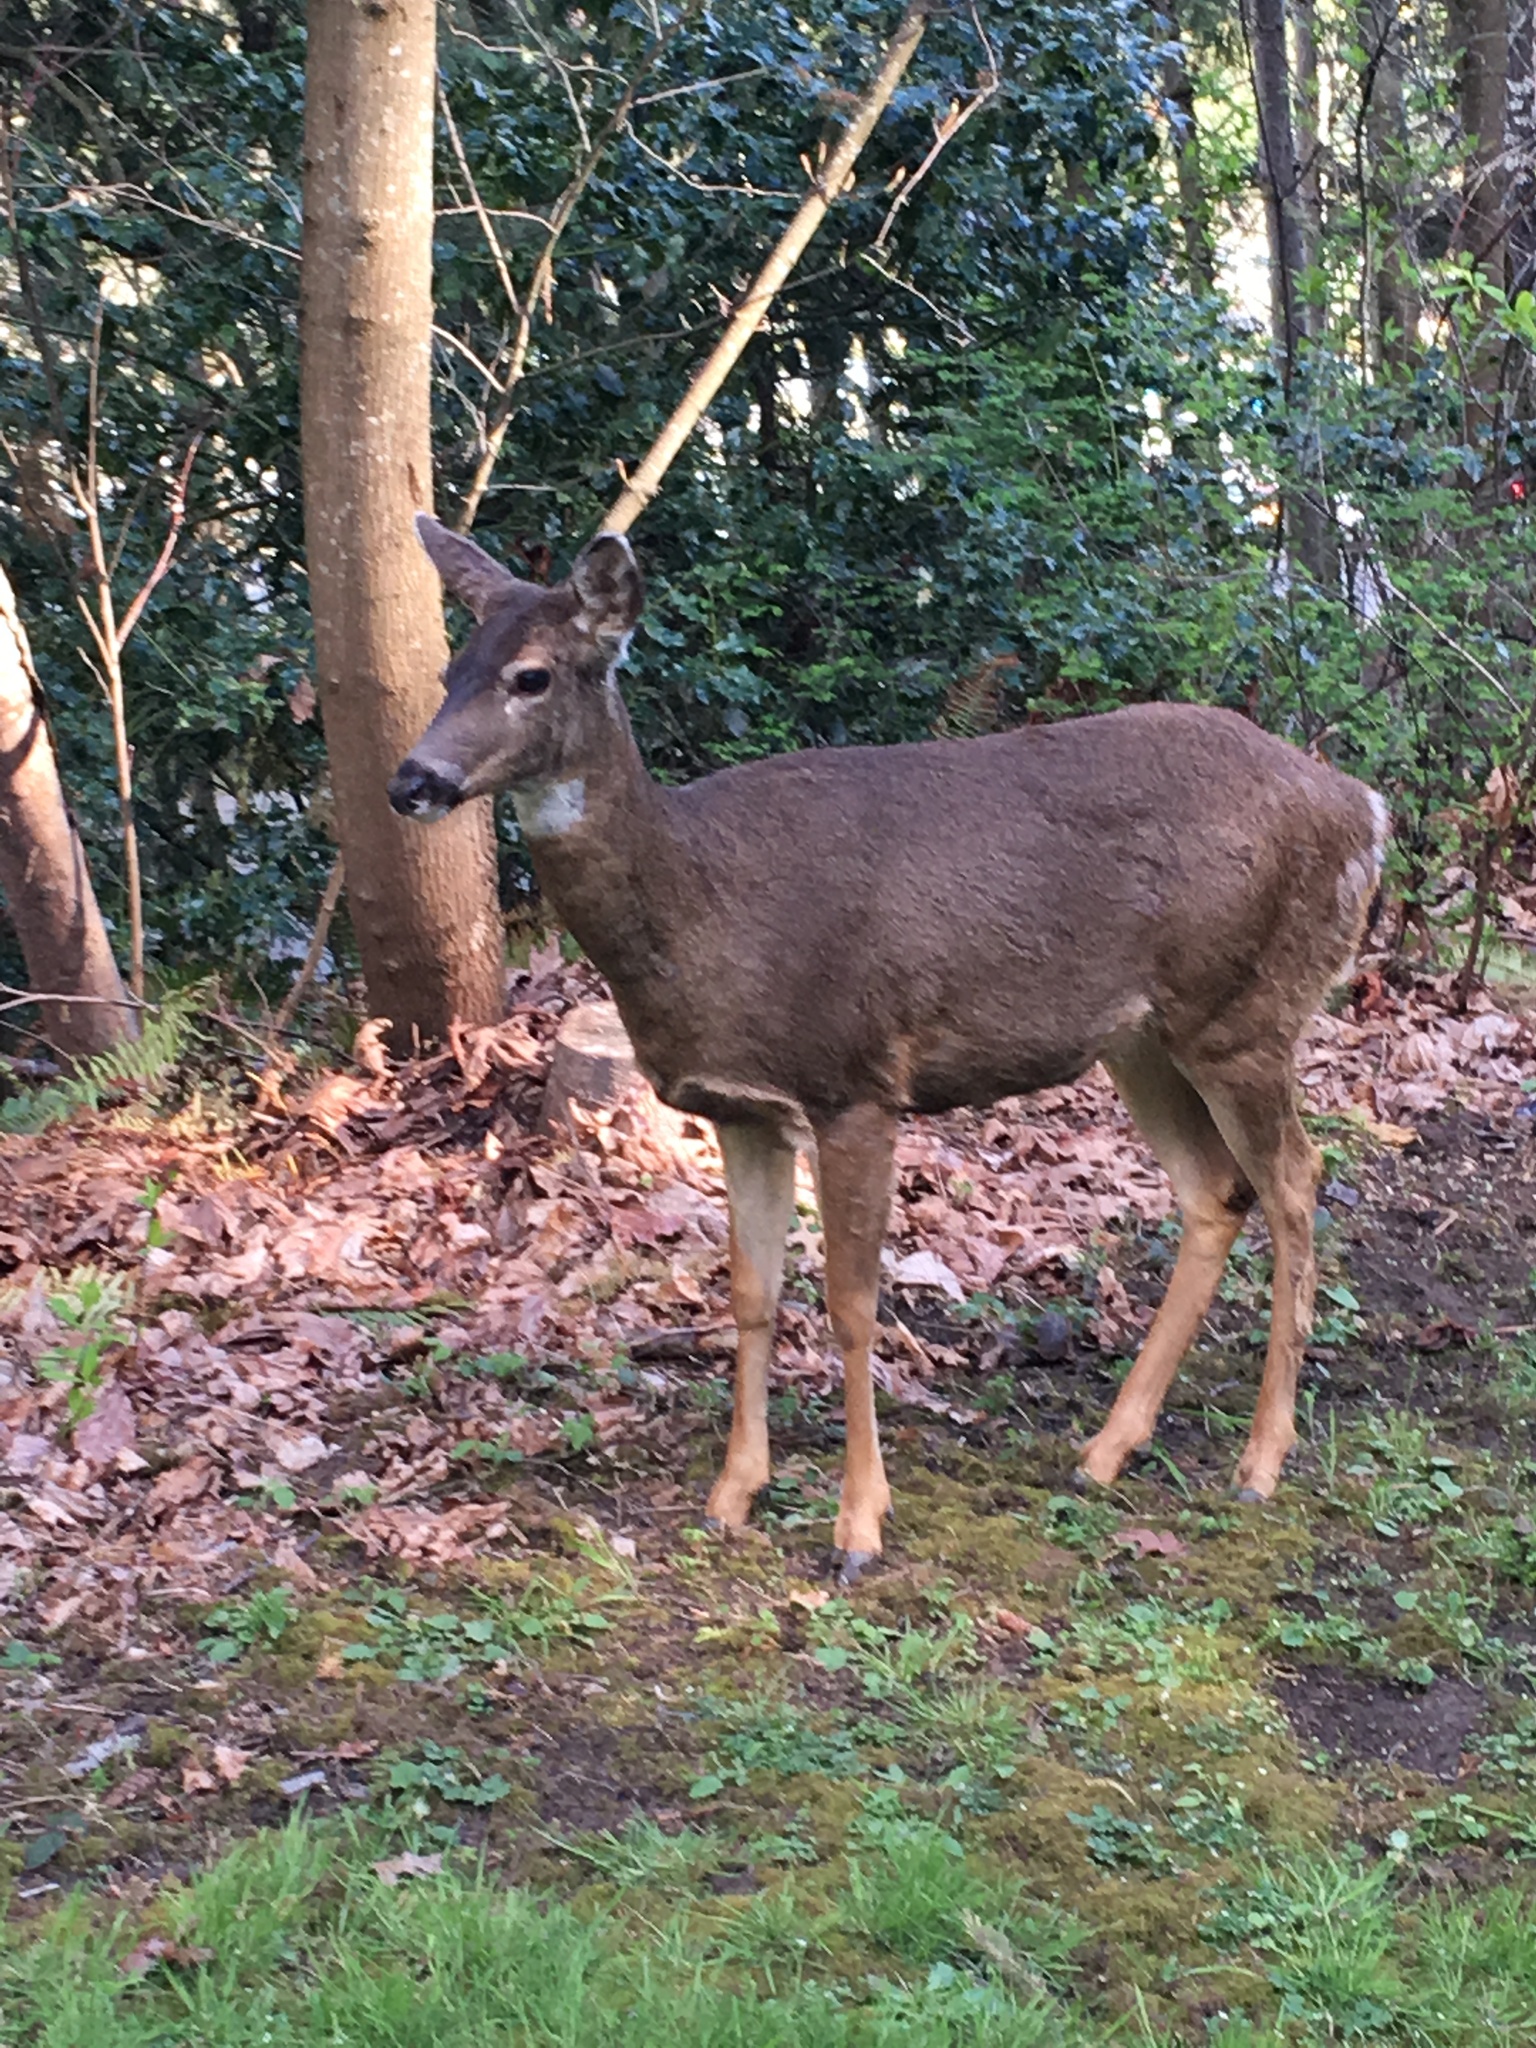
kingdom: Animalia
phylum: Chordata
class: Mammalia
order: Artiodactyla
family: Cervidae
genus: Odocoileus
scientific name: Odocoileus hemionus
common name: Mule deer
